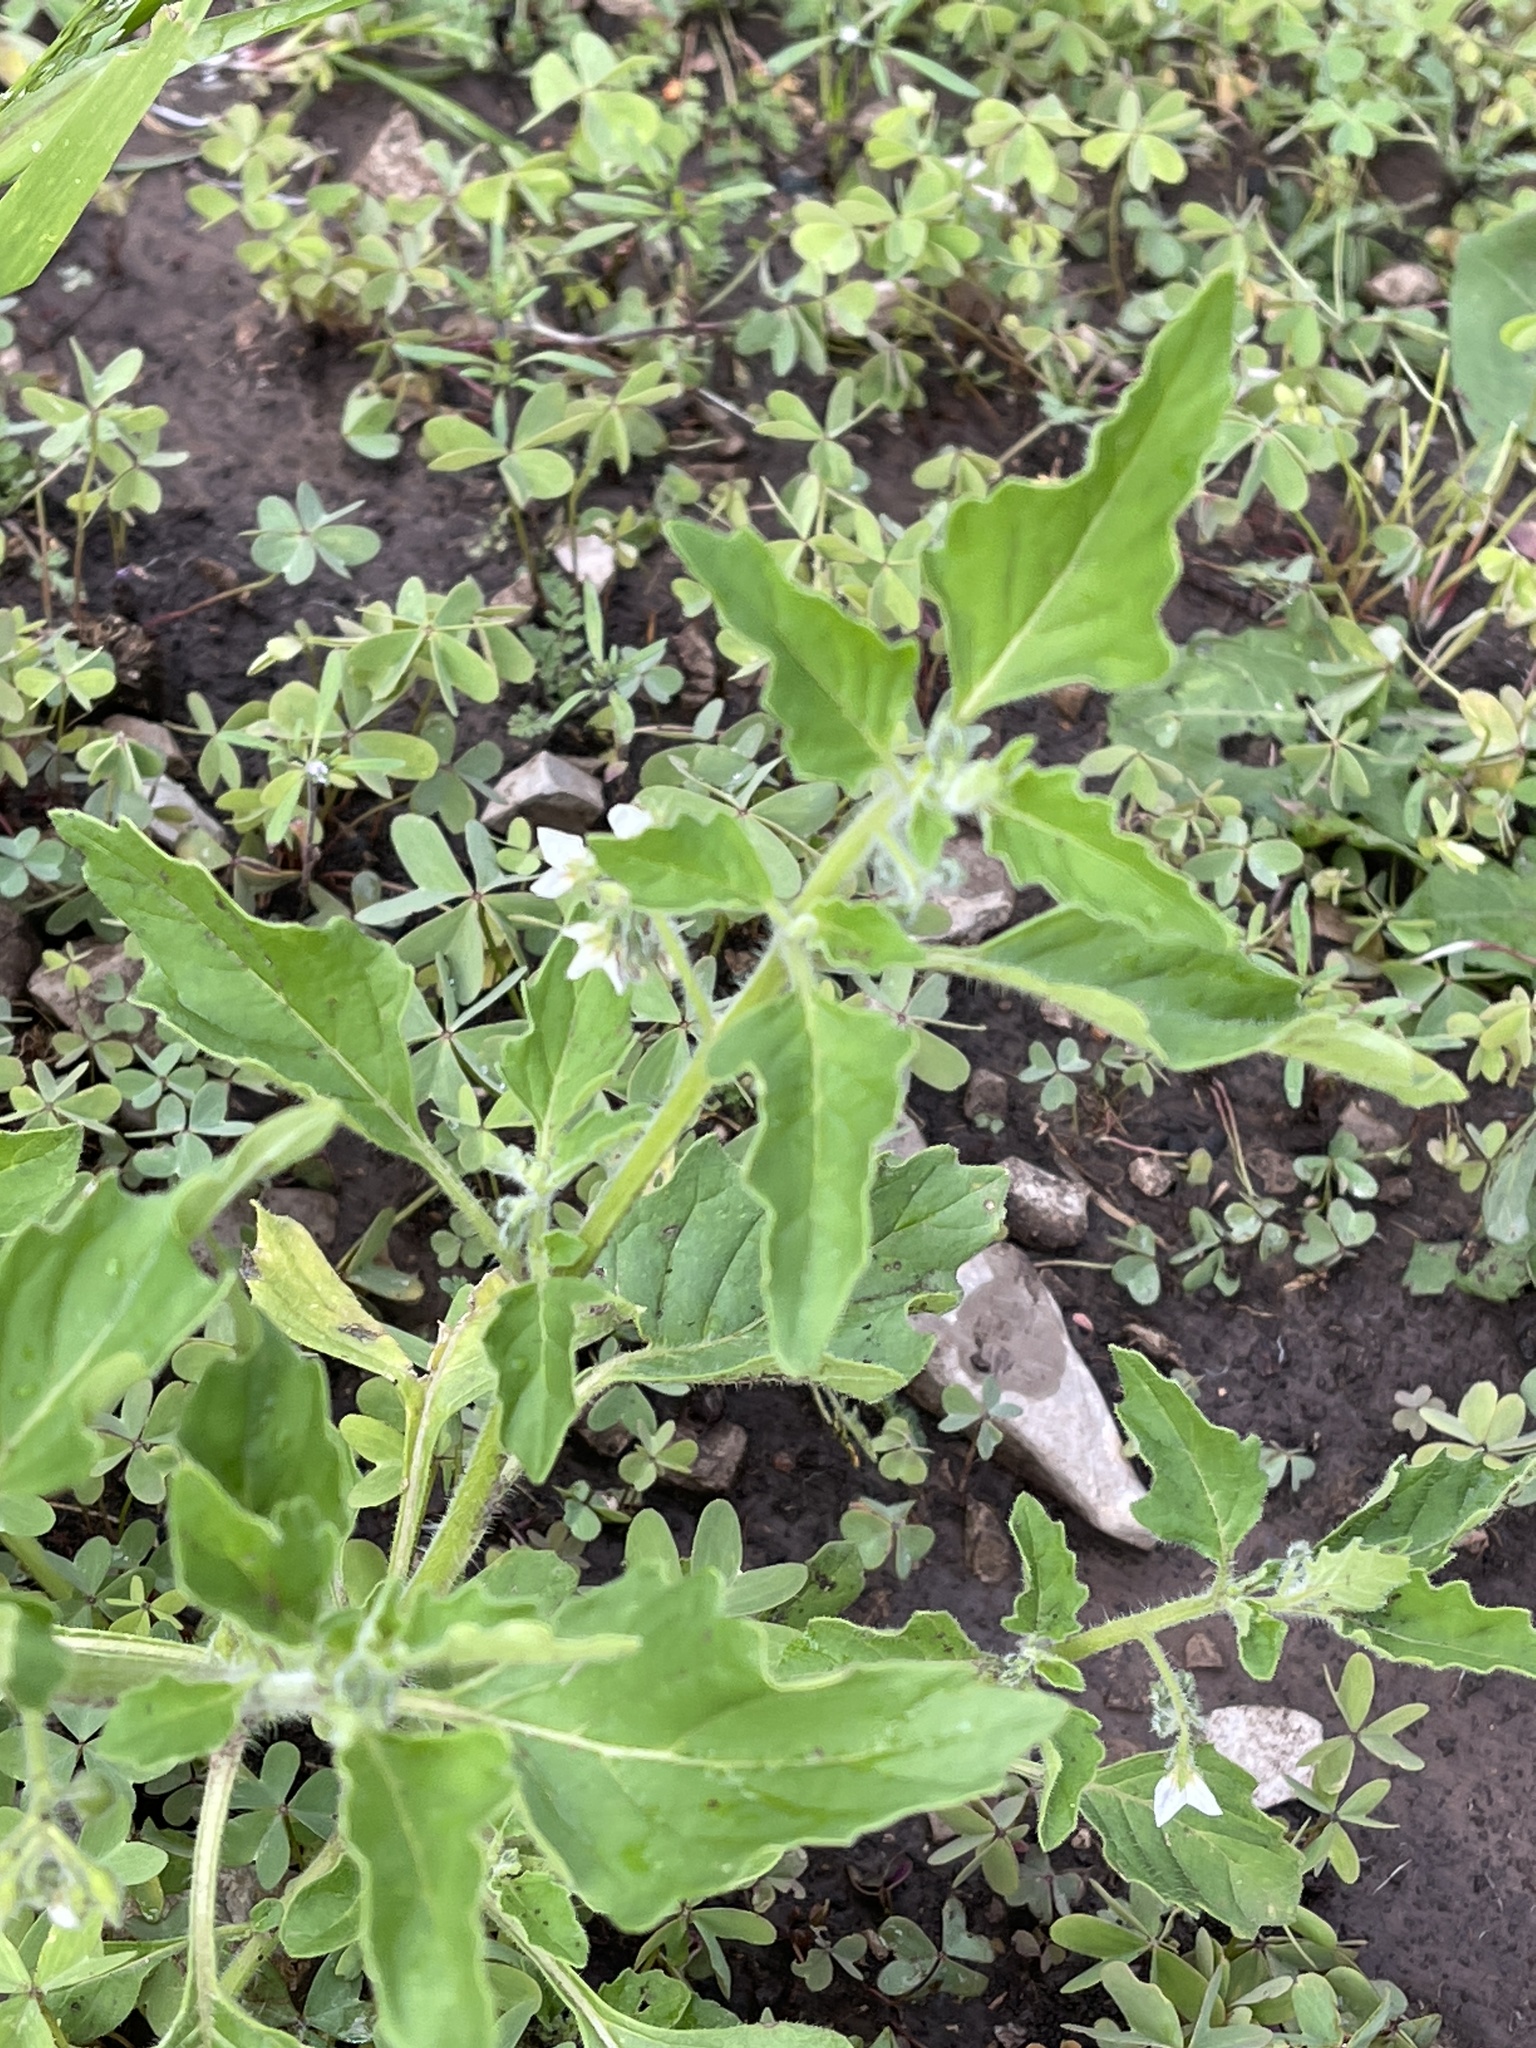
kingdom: Plantae
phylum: Tracheophyta
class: Magnoliopsida
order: Solanales
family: Solanaceae
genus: Solanum
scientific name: Solanum nitidibaccatum
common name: Hairy nightshade
